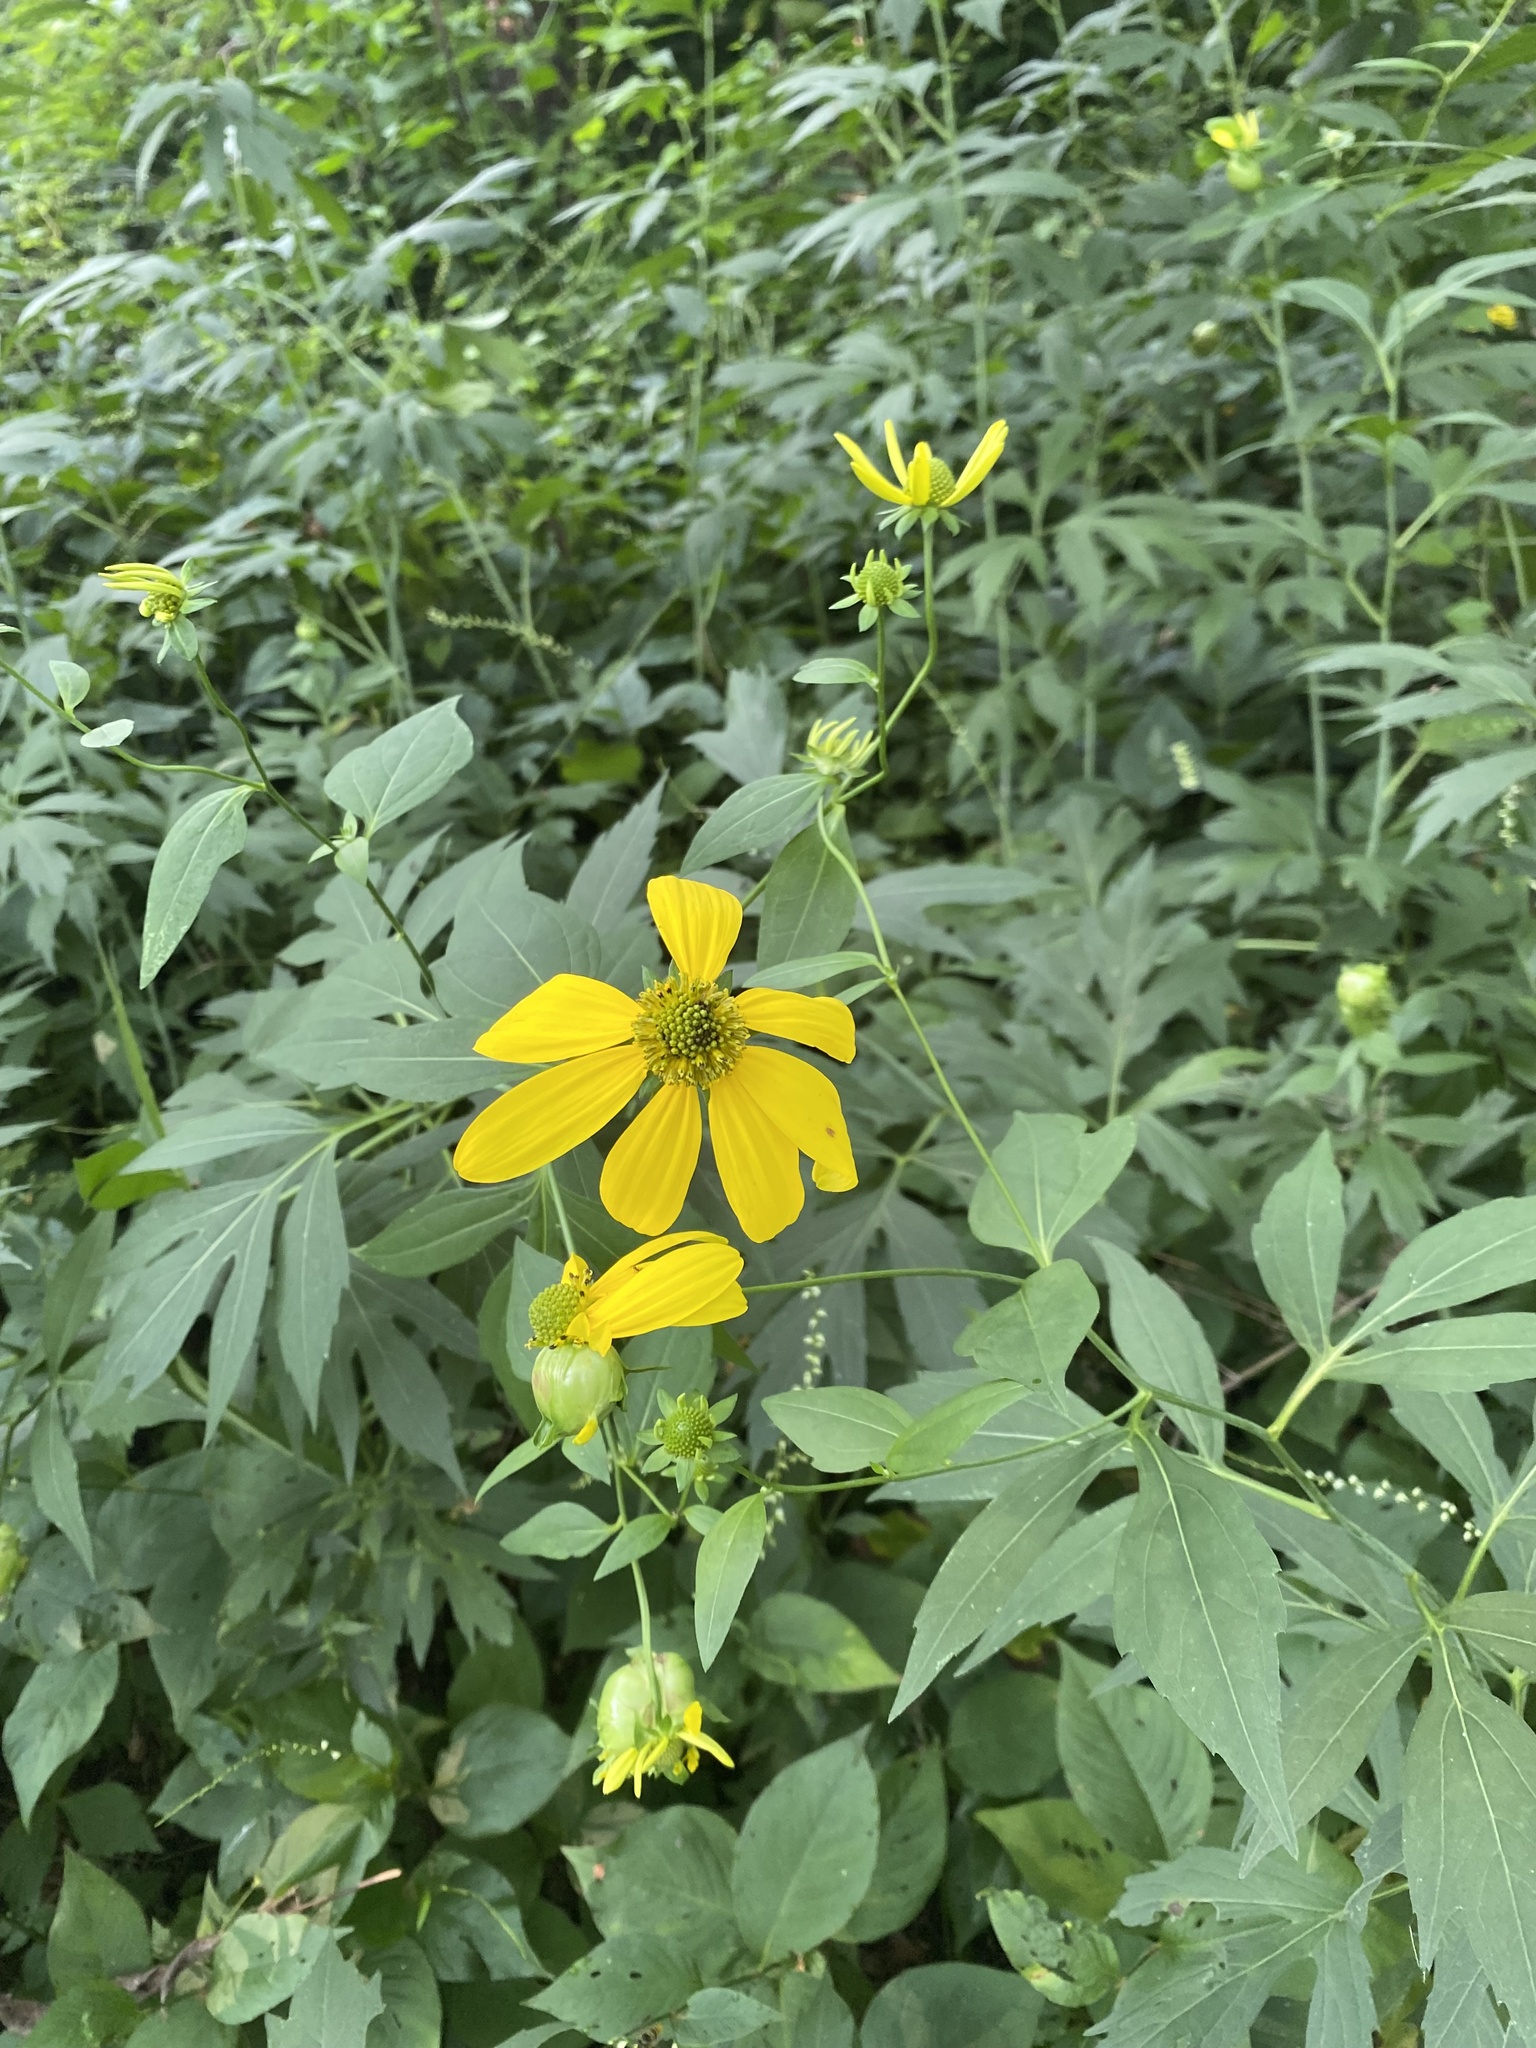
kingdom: Plantae
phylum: Tracheophyta
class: Magnoliopsida
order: Asterales
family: Asteraceae
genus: Rudbeckia
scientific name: Rudbeckia laciniata
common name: Coneflower
